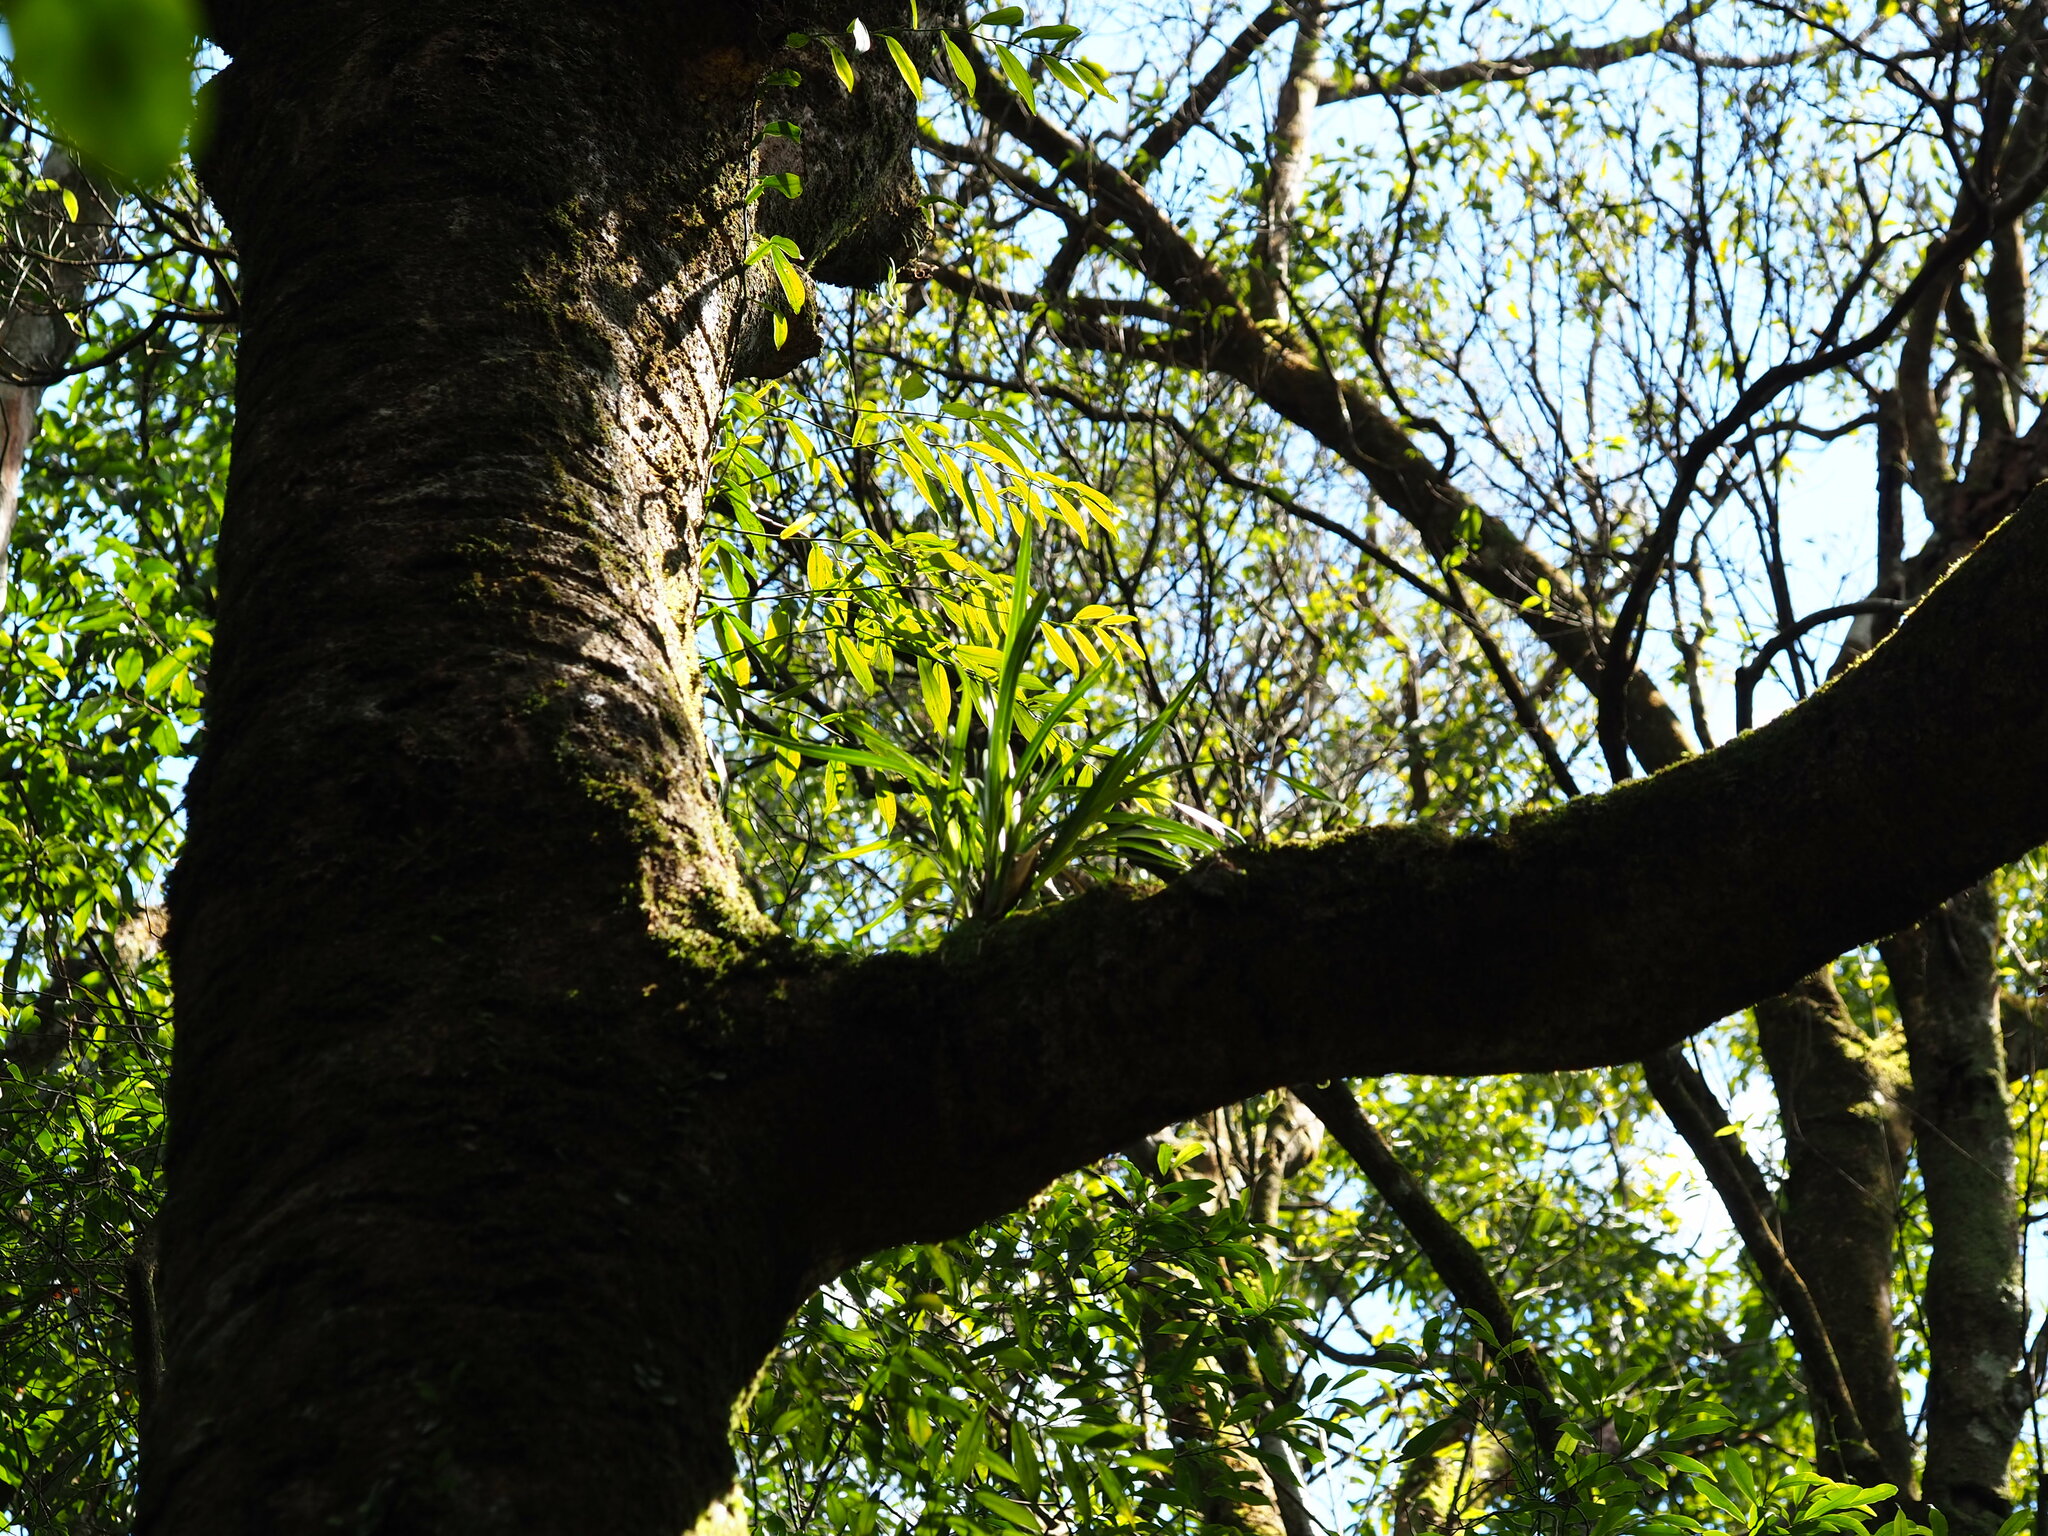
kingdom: Plantae
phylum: Tracheophyta
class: Liliopsida
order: Asparagales
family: Orchidaceae
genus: Cymbidium
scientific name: Cymbidium dayanum
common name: Orchid
